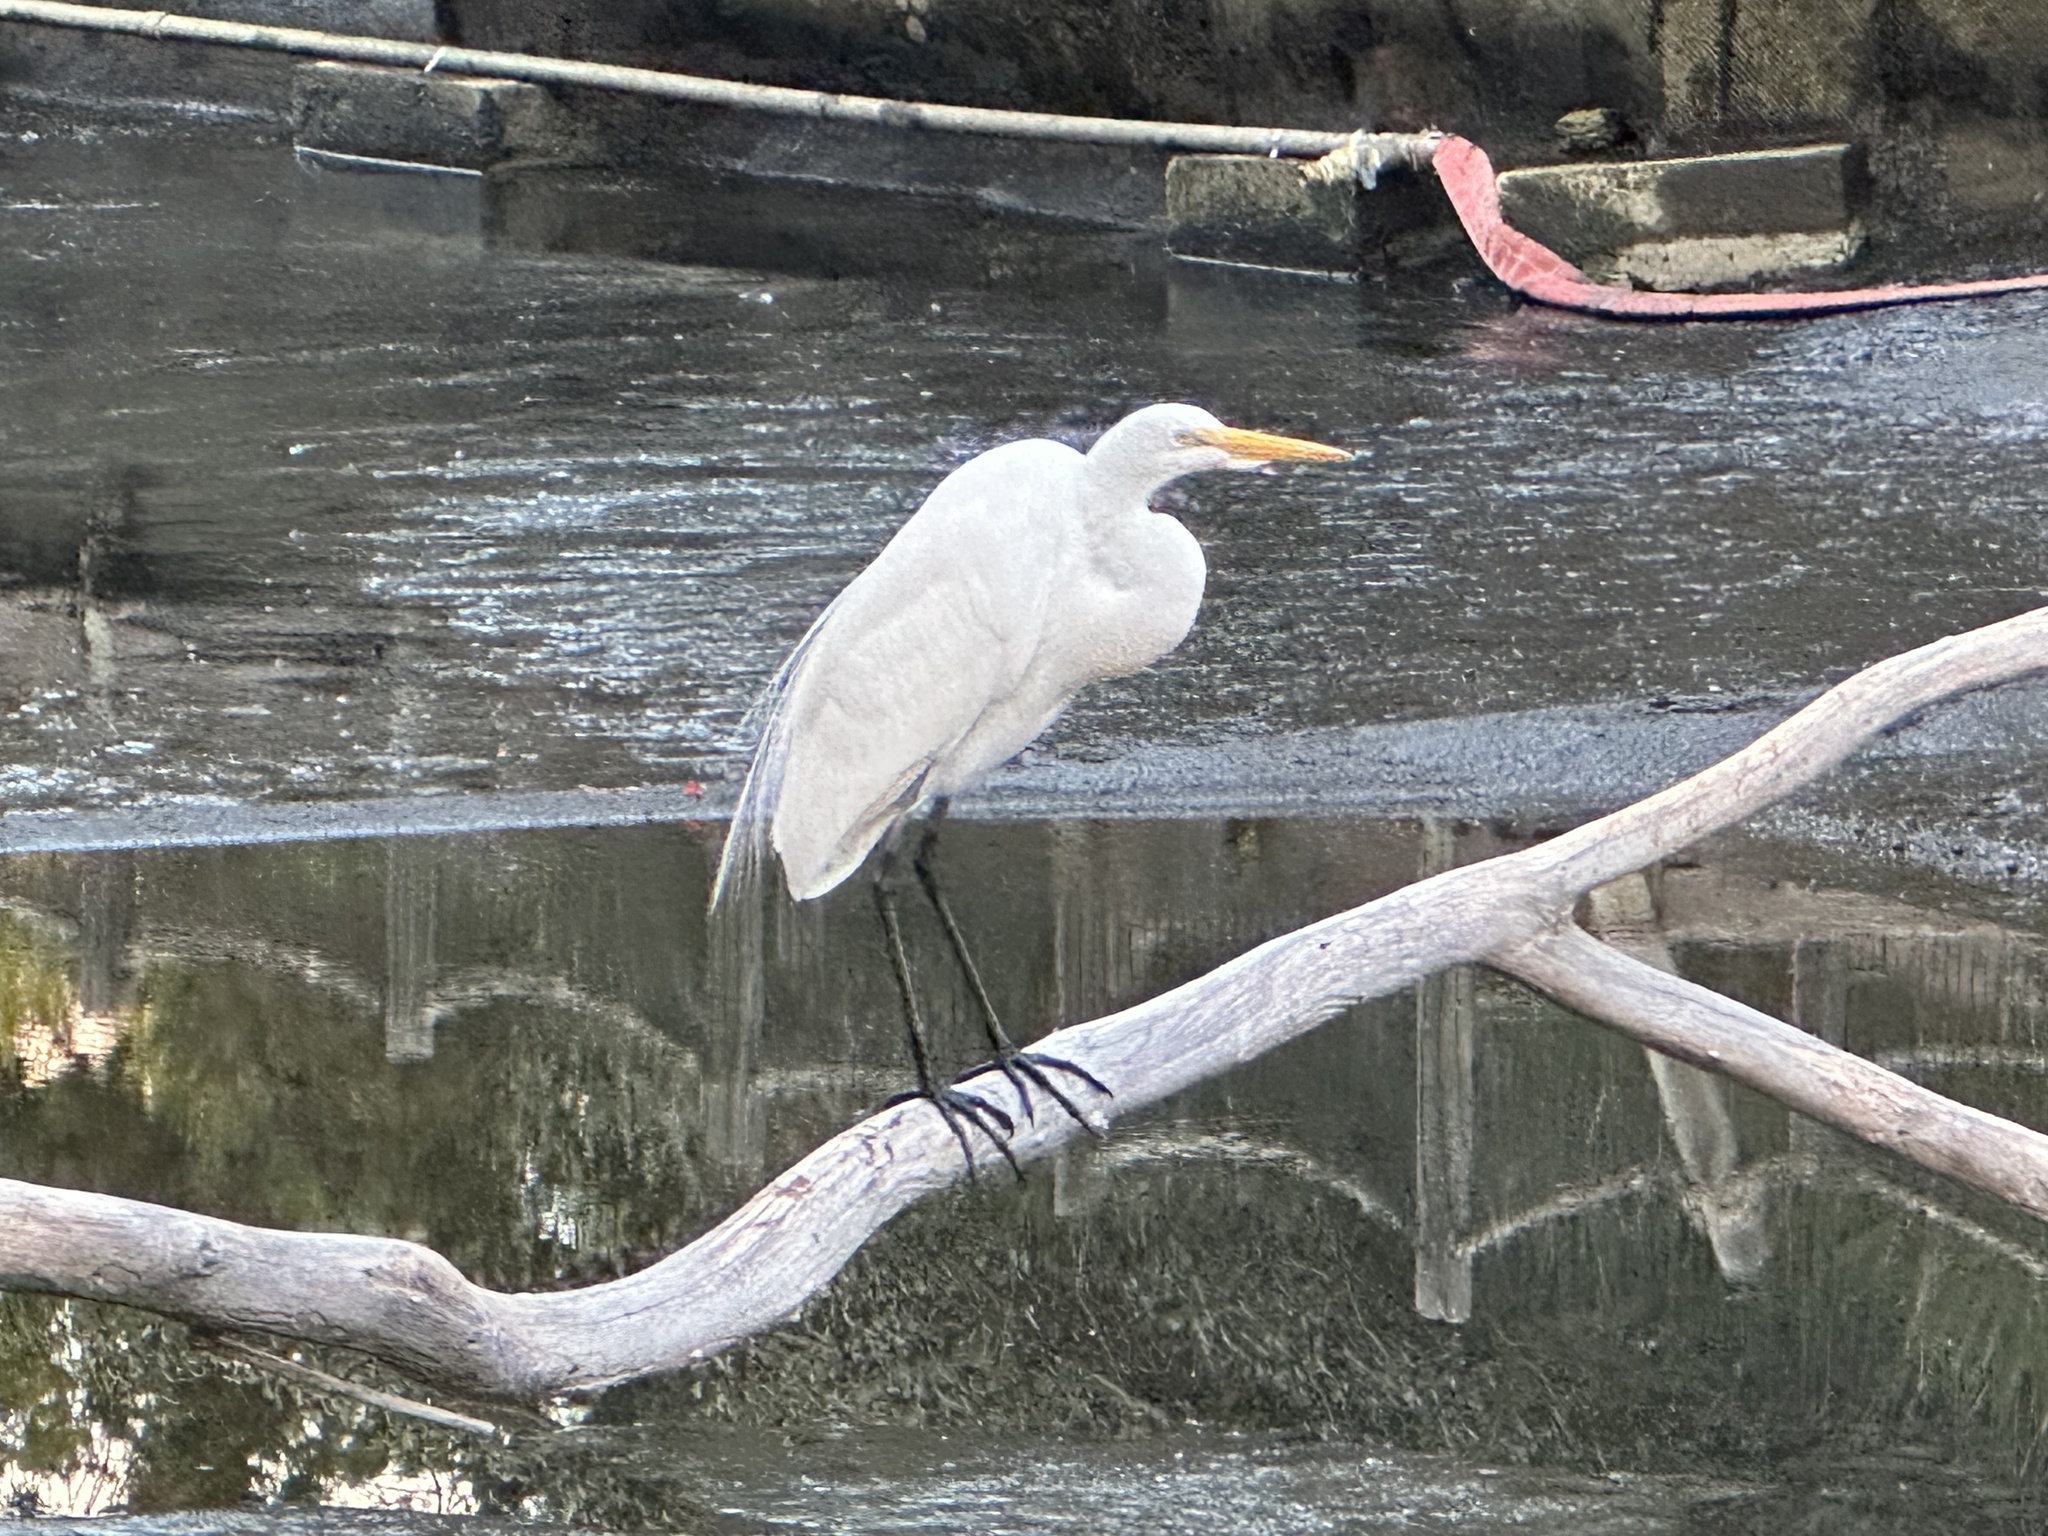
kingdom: Animalia
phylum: Chordata
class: Aves
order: Pelecaniformes
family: Ardeidae
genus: Ardea
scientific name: Ardea alba
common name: Great egret
